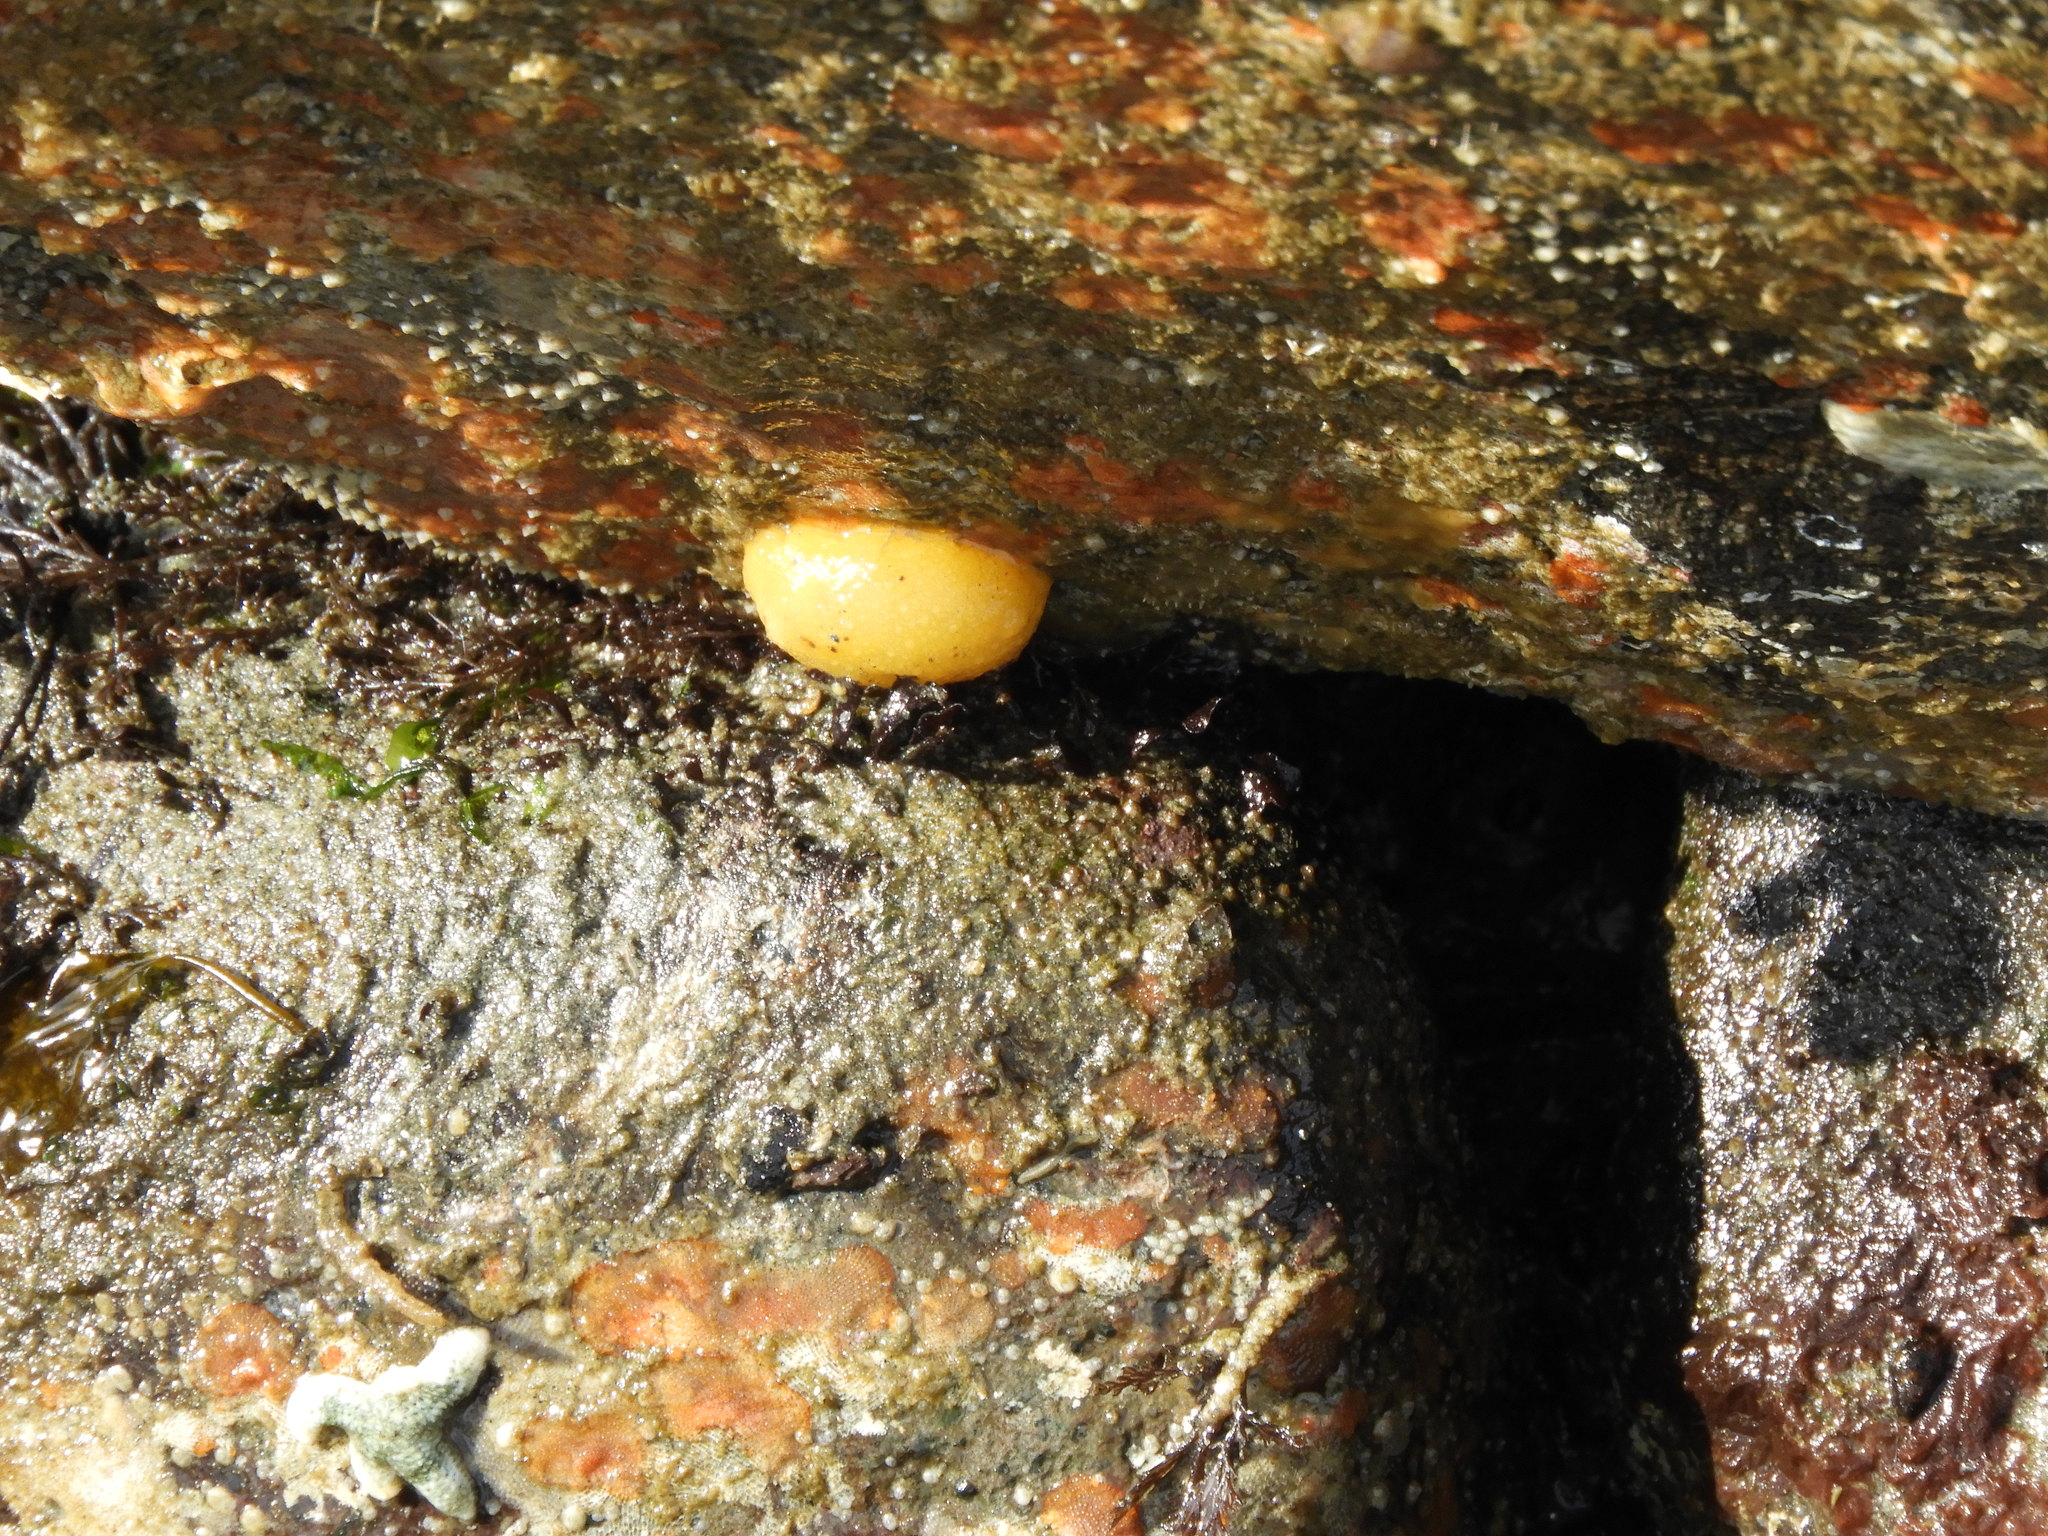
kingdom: Animalia
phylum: Mollusca
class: Gastropoda
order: Nudibranchia
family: Dorididae
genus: Doris
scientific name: Doris montereyensis
